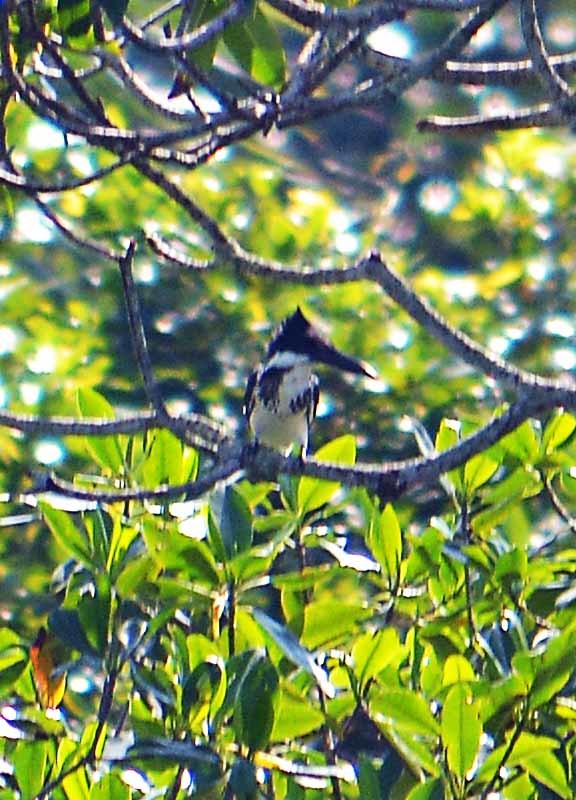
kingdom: Animalia
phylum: Chordata
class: Aves
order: Coraciiformes
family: Alcedinidae
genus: Chloroceryle
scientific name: Chloroceryle amazona
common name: Amazon kingfisher
